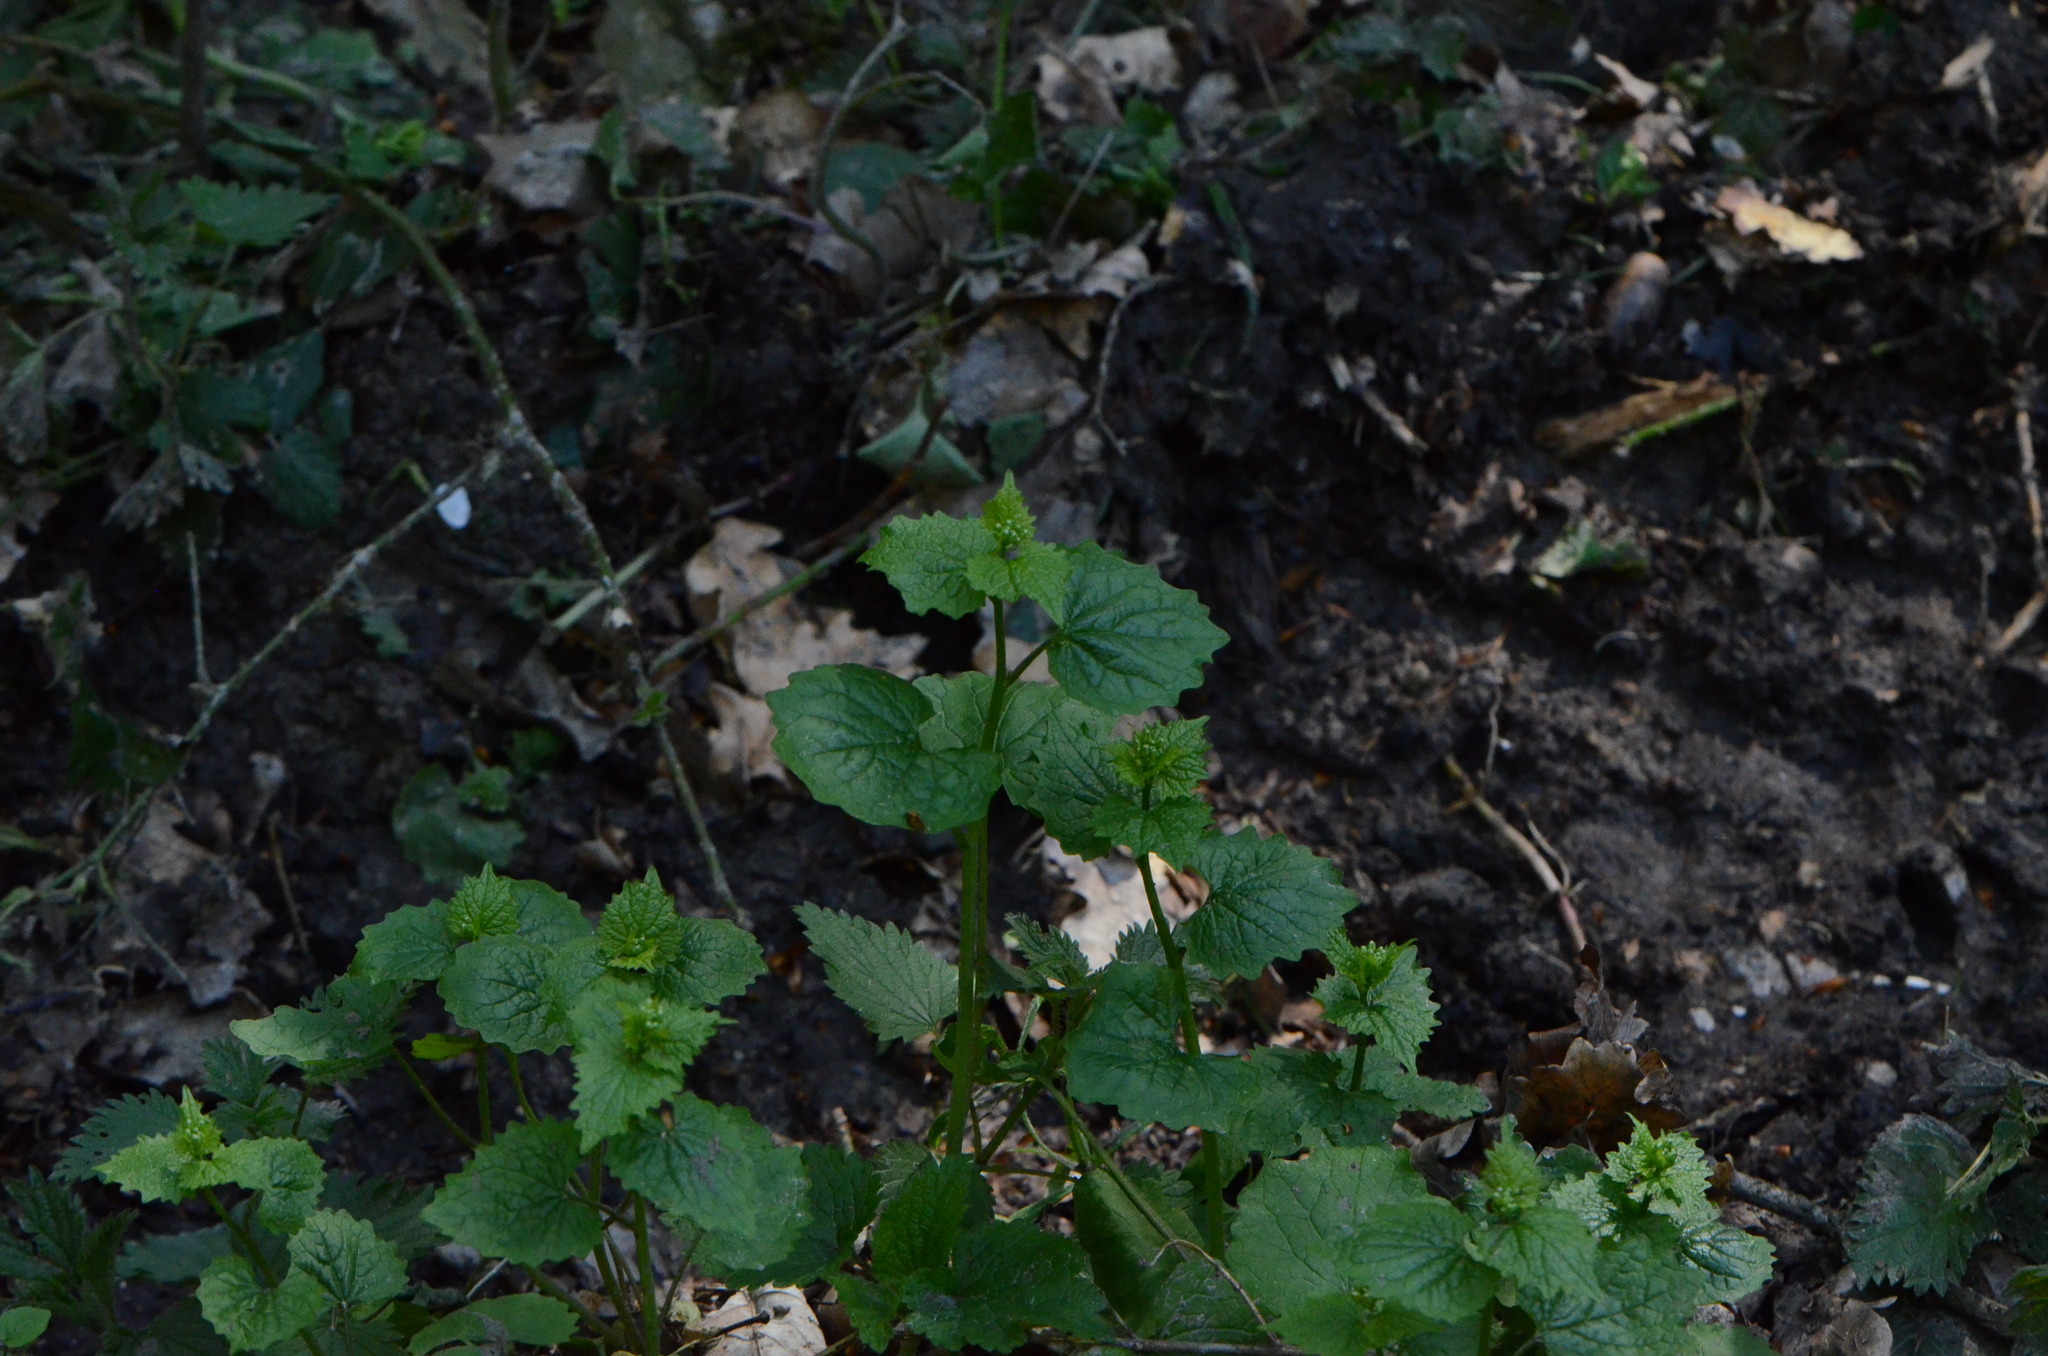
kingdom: Plantae
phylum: Tracheophyta
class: Magnoliopsida
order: Brassicales
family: Brassicaceae
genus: Alliaria
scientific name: Alliaria petiolata
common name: Garlic mustard
